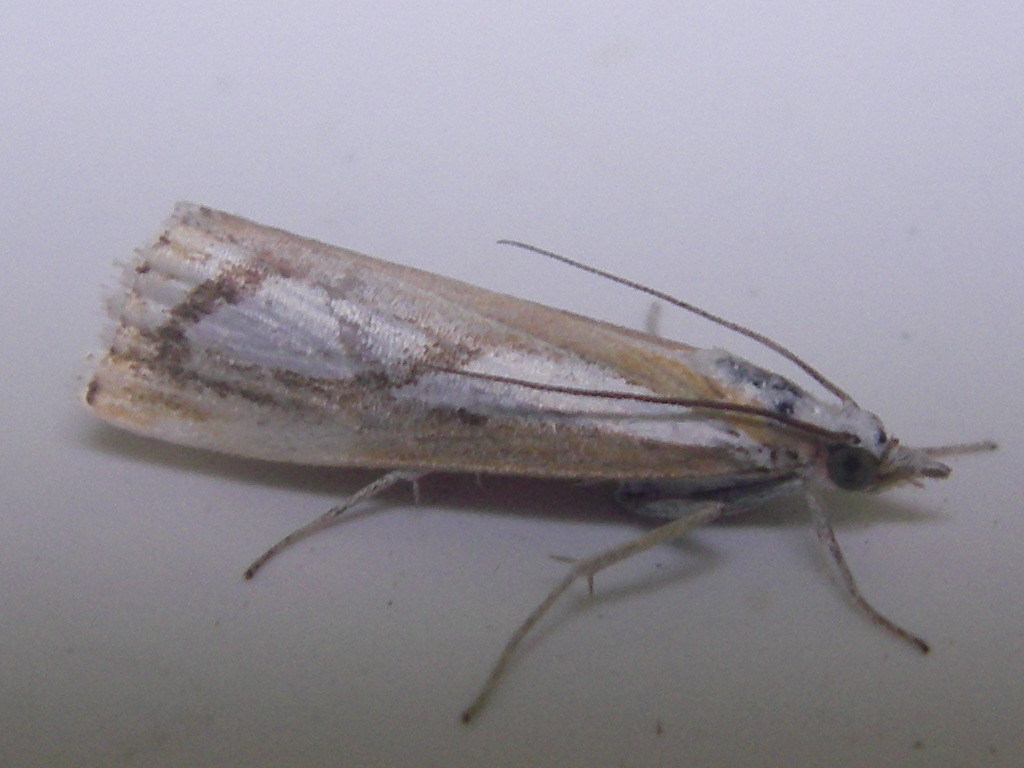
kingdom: Animalia
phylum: Arthropoda
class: Insecta
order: Lepidoptera
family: Crambidae
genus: Catoptria
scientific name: Catoptria pinella
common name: Pearl grass-veneer
